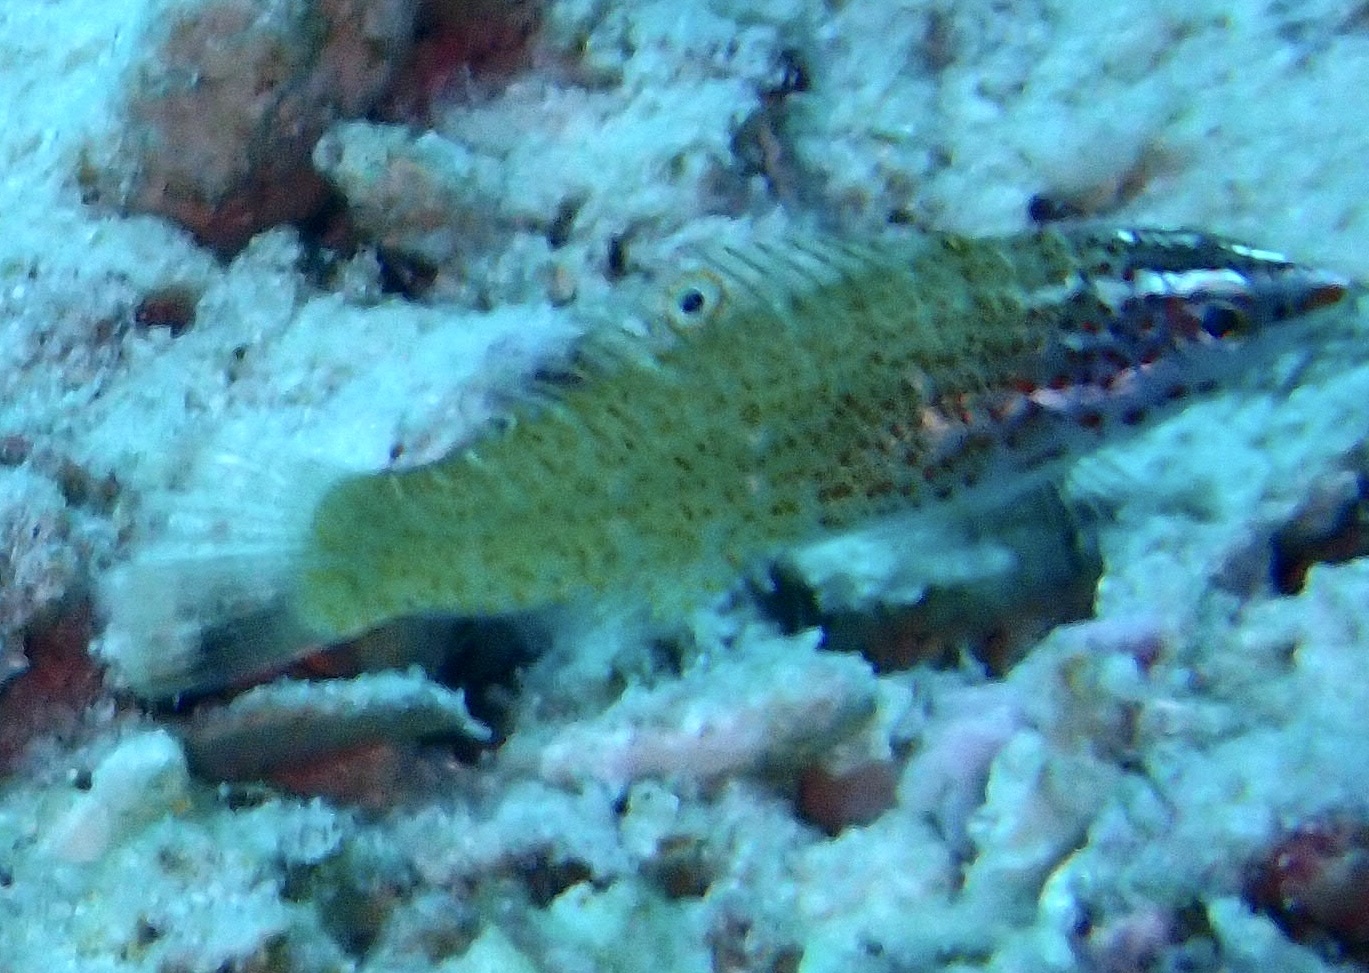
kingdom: Animalia
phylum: Chordata
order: Perciformes
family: Labridae
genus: Coris
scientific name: Coris batuensis
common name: Batu coris
